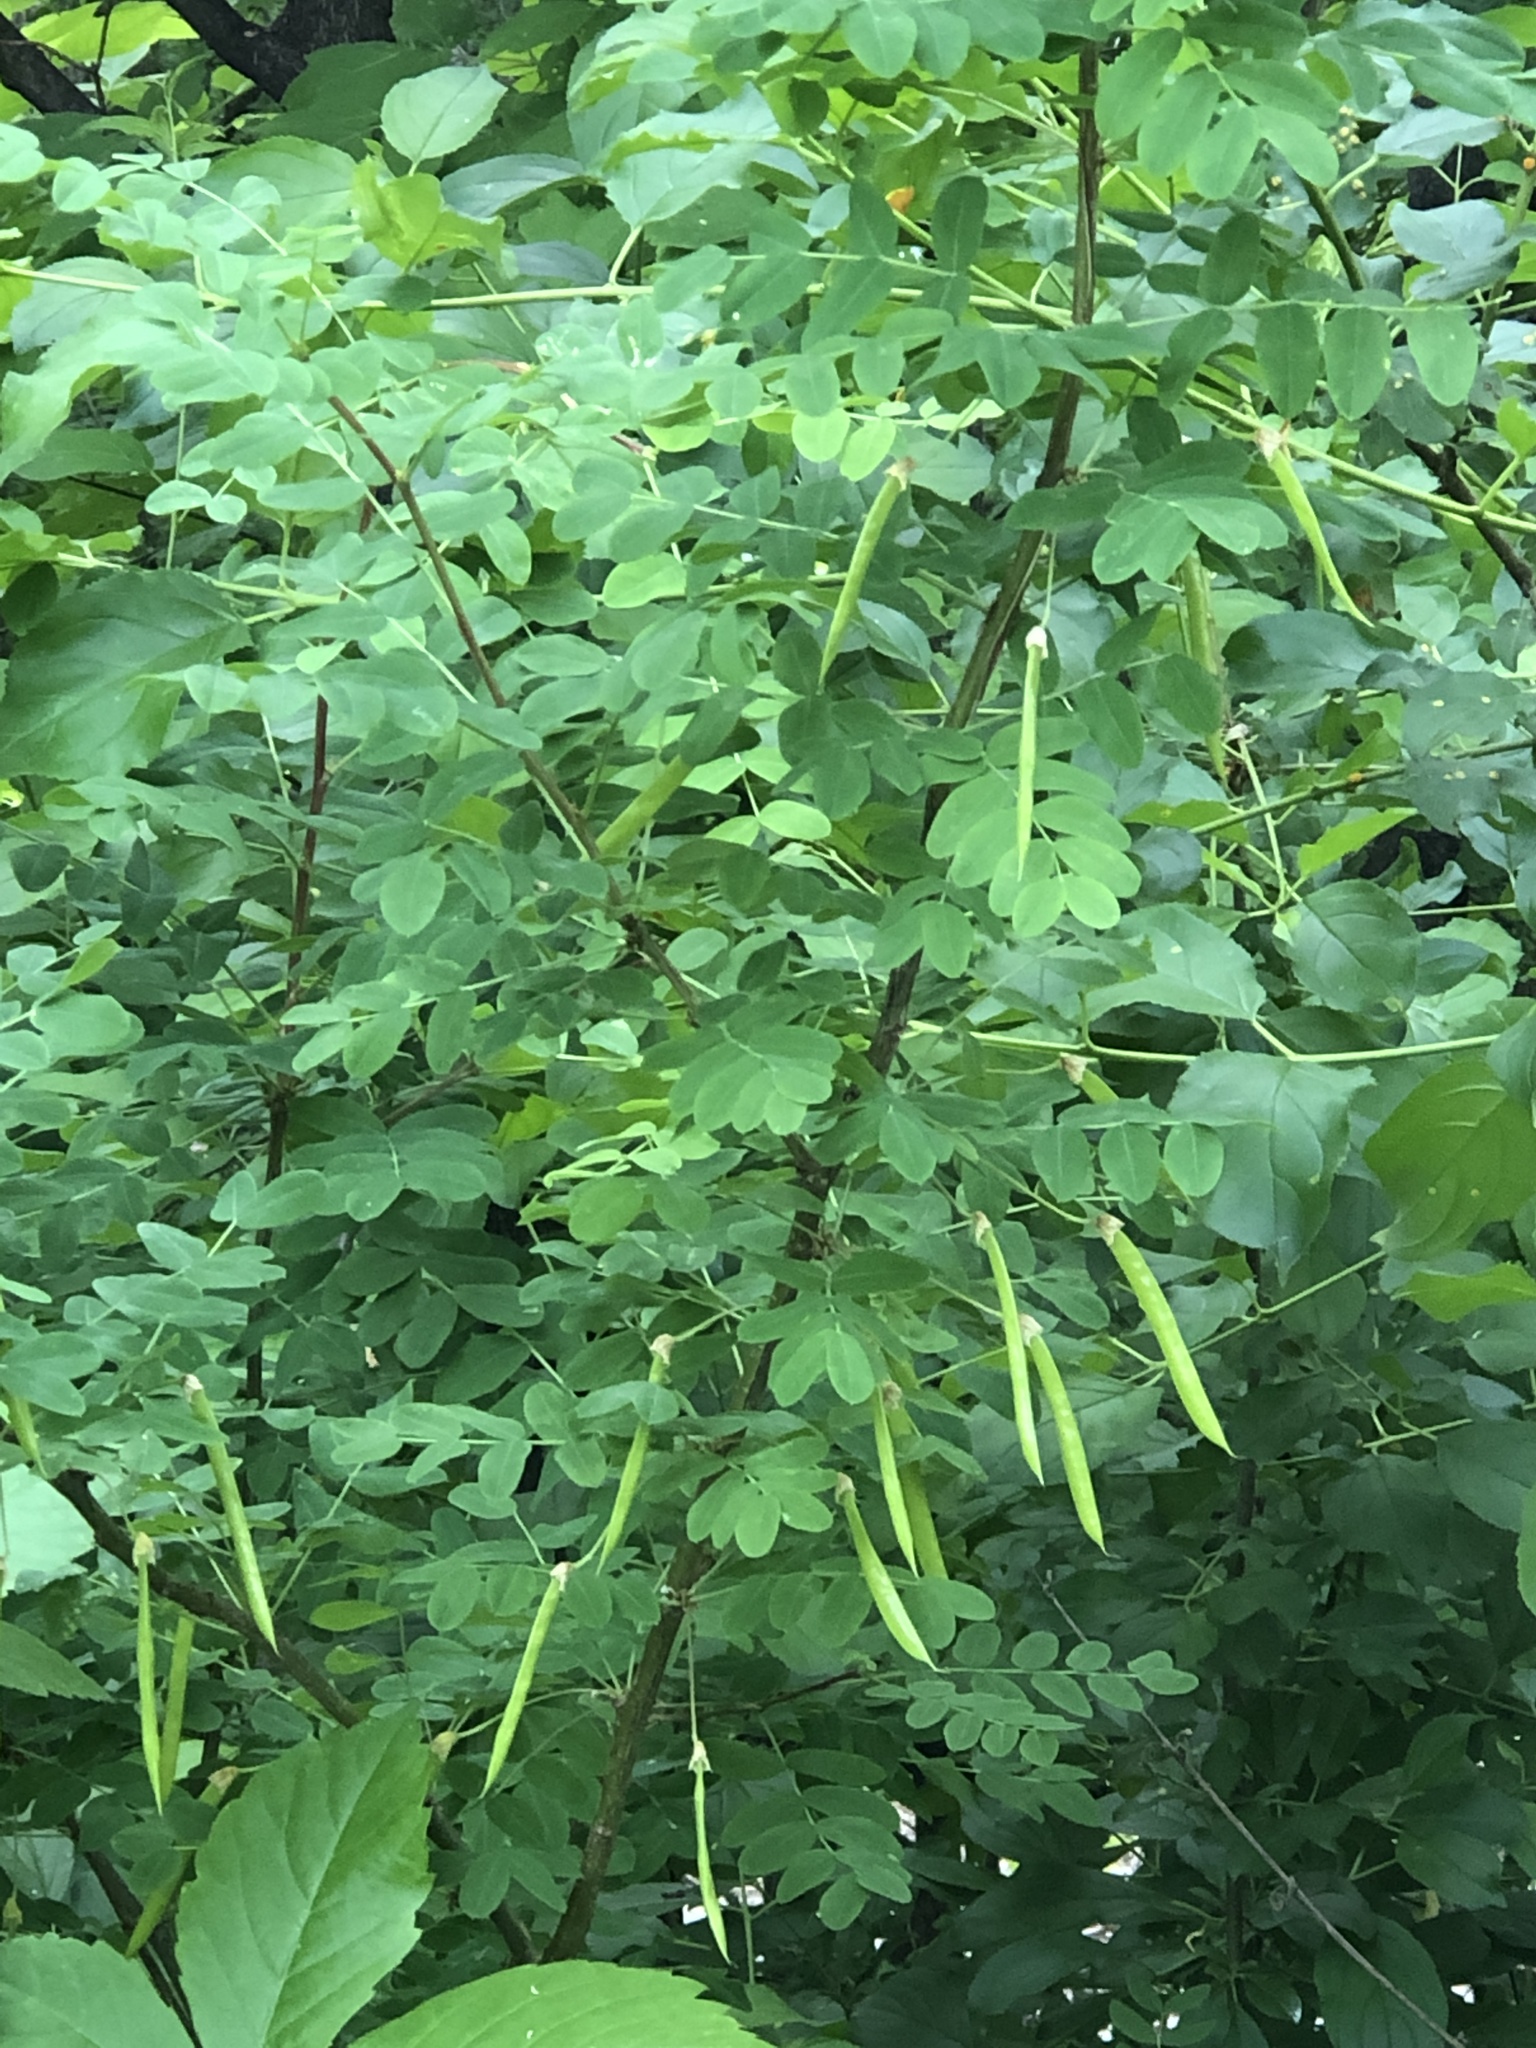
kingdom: Plantae
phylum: Tracheophyta
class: Magnoliopsida
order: Fabales
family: Fabaceae
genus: Caragana
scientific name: Caragana arborescens
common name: Siberian peashrub
